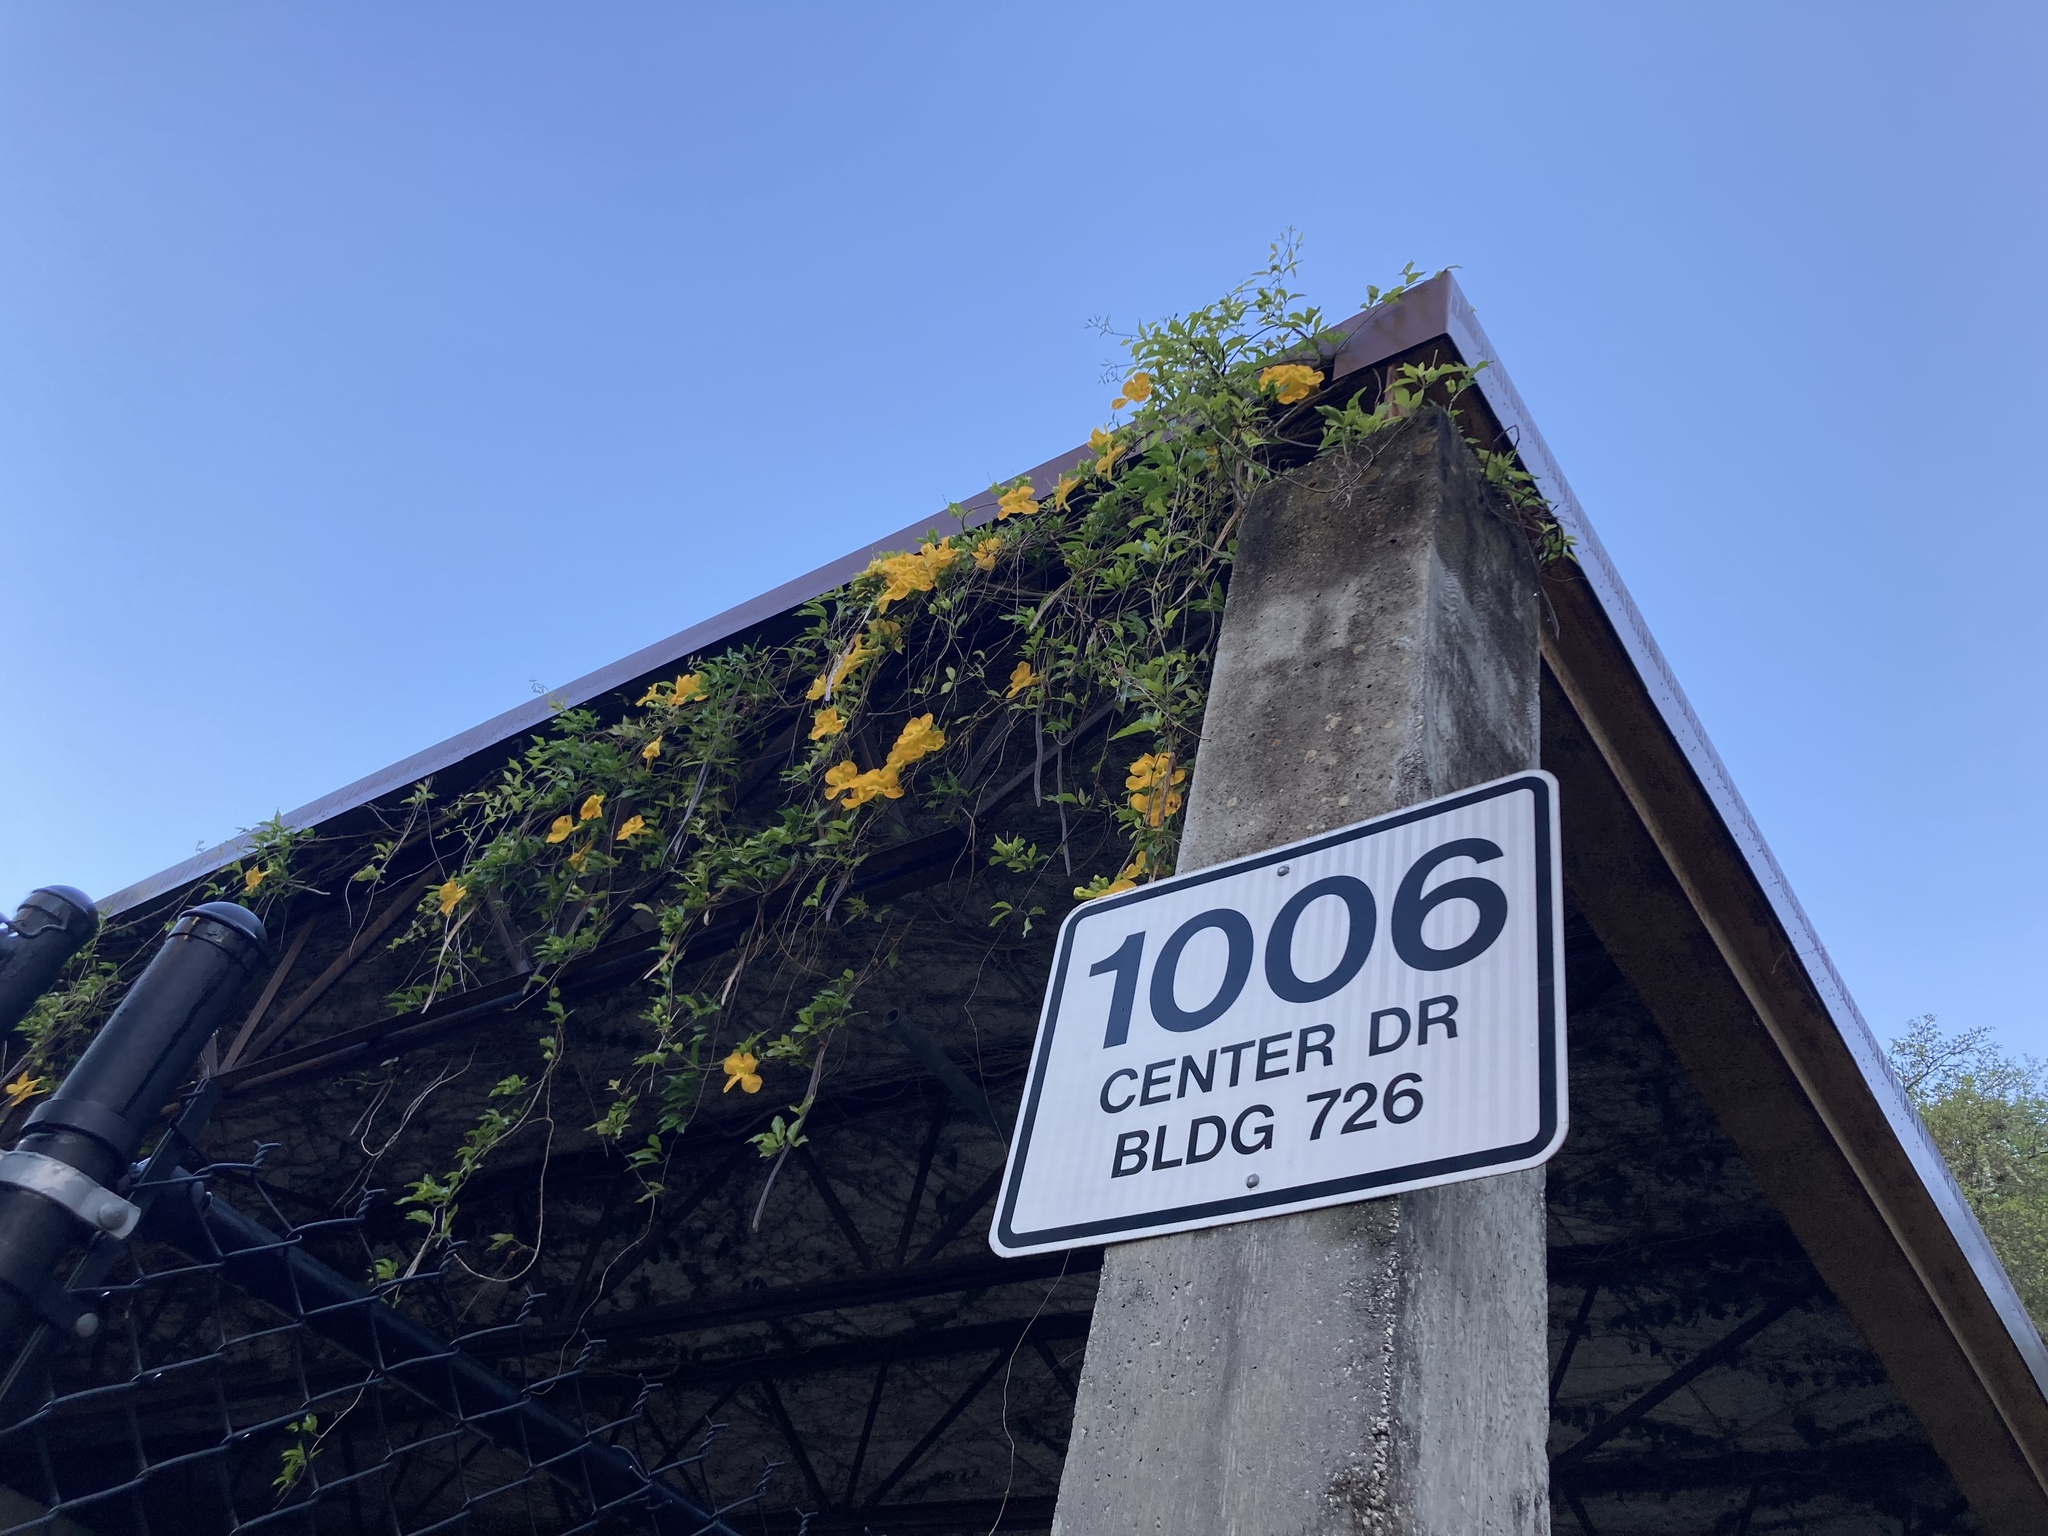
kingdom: Plantae
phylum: Tracheophyta
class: Magnoliopsida
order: Lamiales
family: Bignoniaceae
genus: Dolichandra
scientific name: Dolichandra unguis-cati
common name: Catclaw vine
